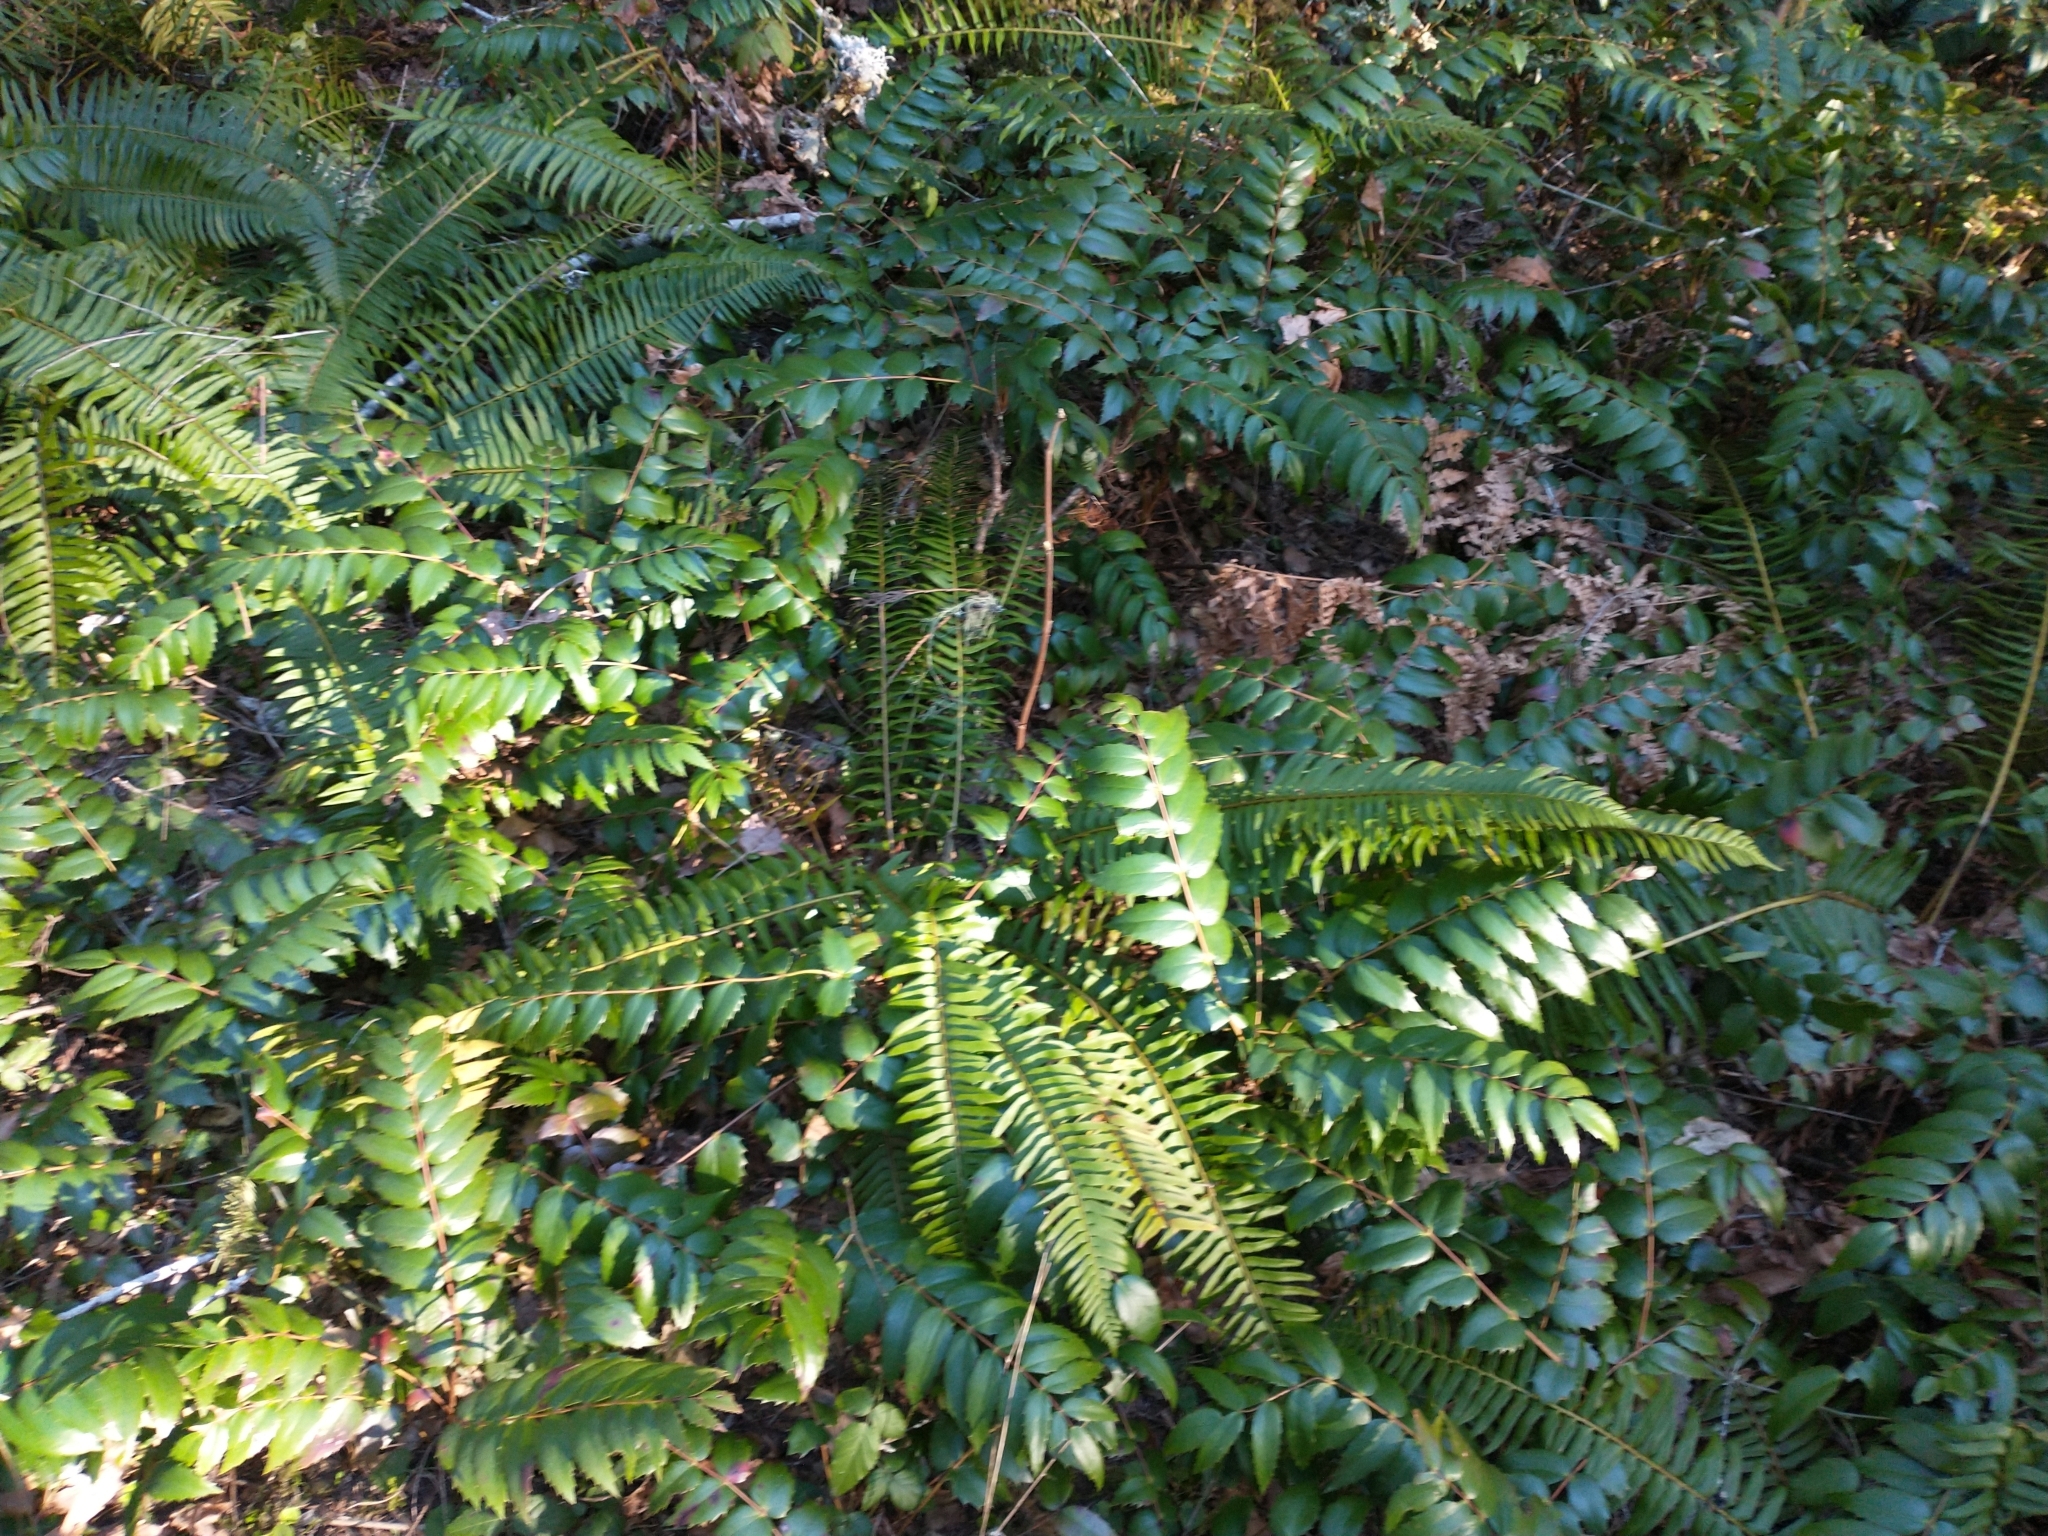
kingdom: Plantae
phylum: Tracheophyta
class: Polypodiopsida
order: Polypodiales
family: Dryopteridaceae
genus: Polystichum
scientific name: Polystichum munitum
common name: Western sword-fern
